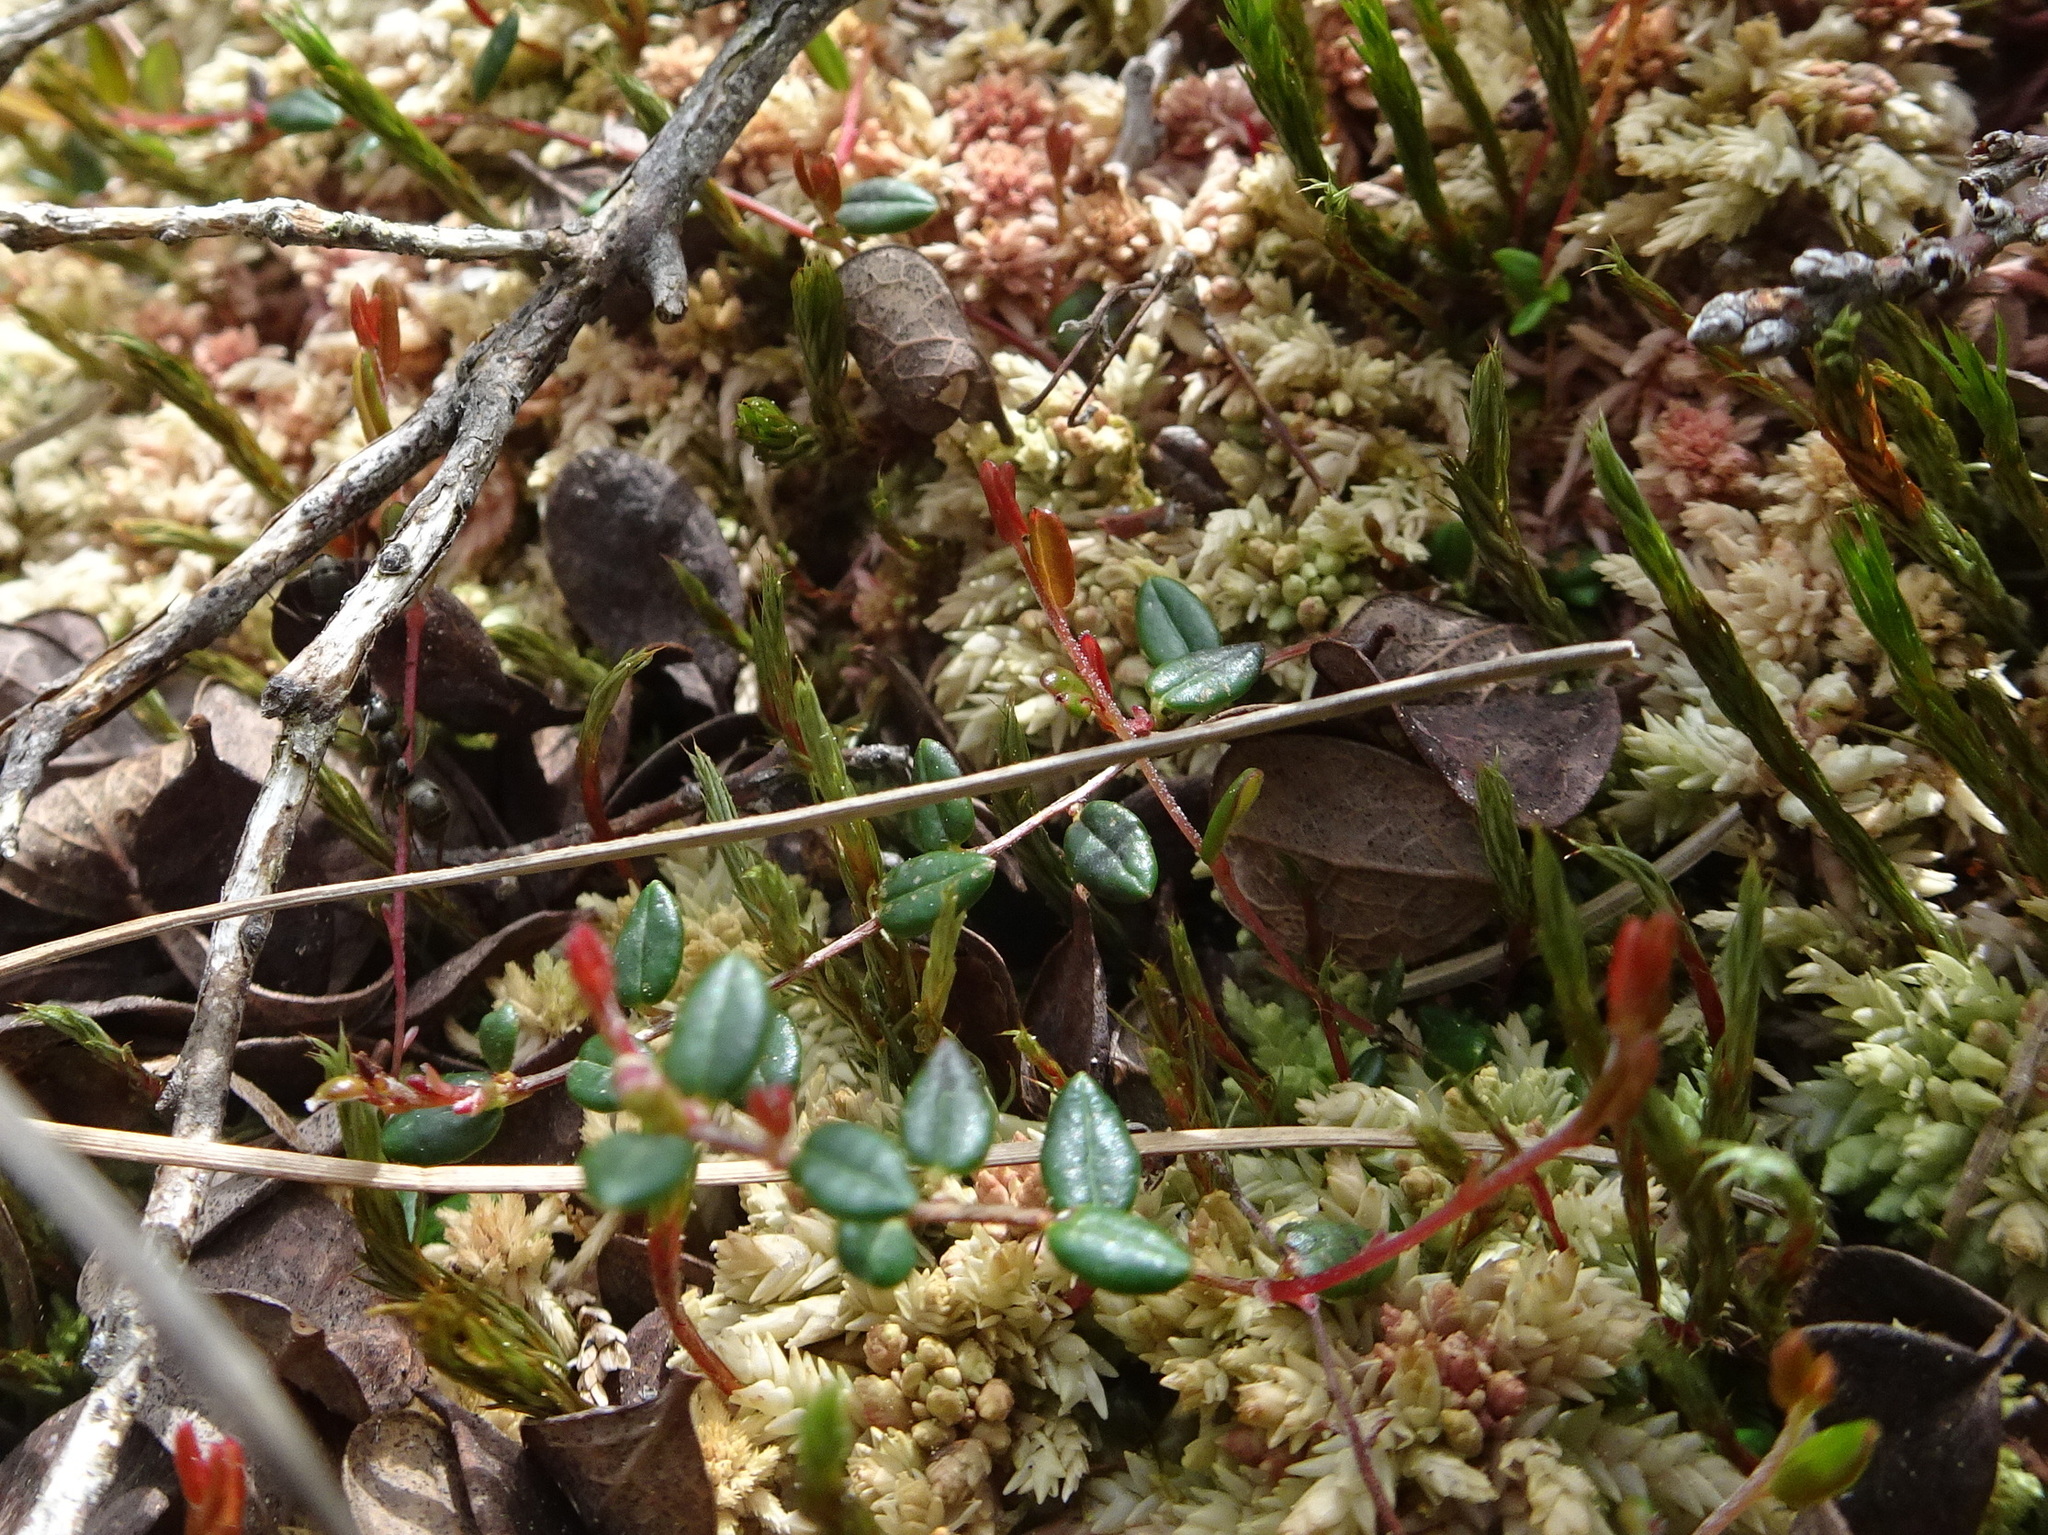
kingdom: Plantae
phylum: Tracheophyta
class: Magnoliopsida
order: Ericales
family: Ericaceae
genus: Vaccinium
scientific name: Vaccinium oxycoccos
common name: Cranberry
